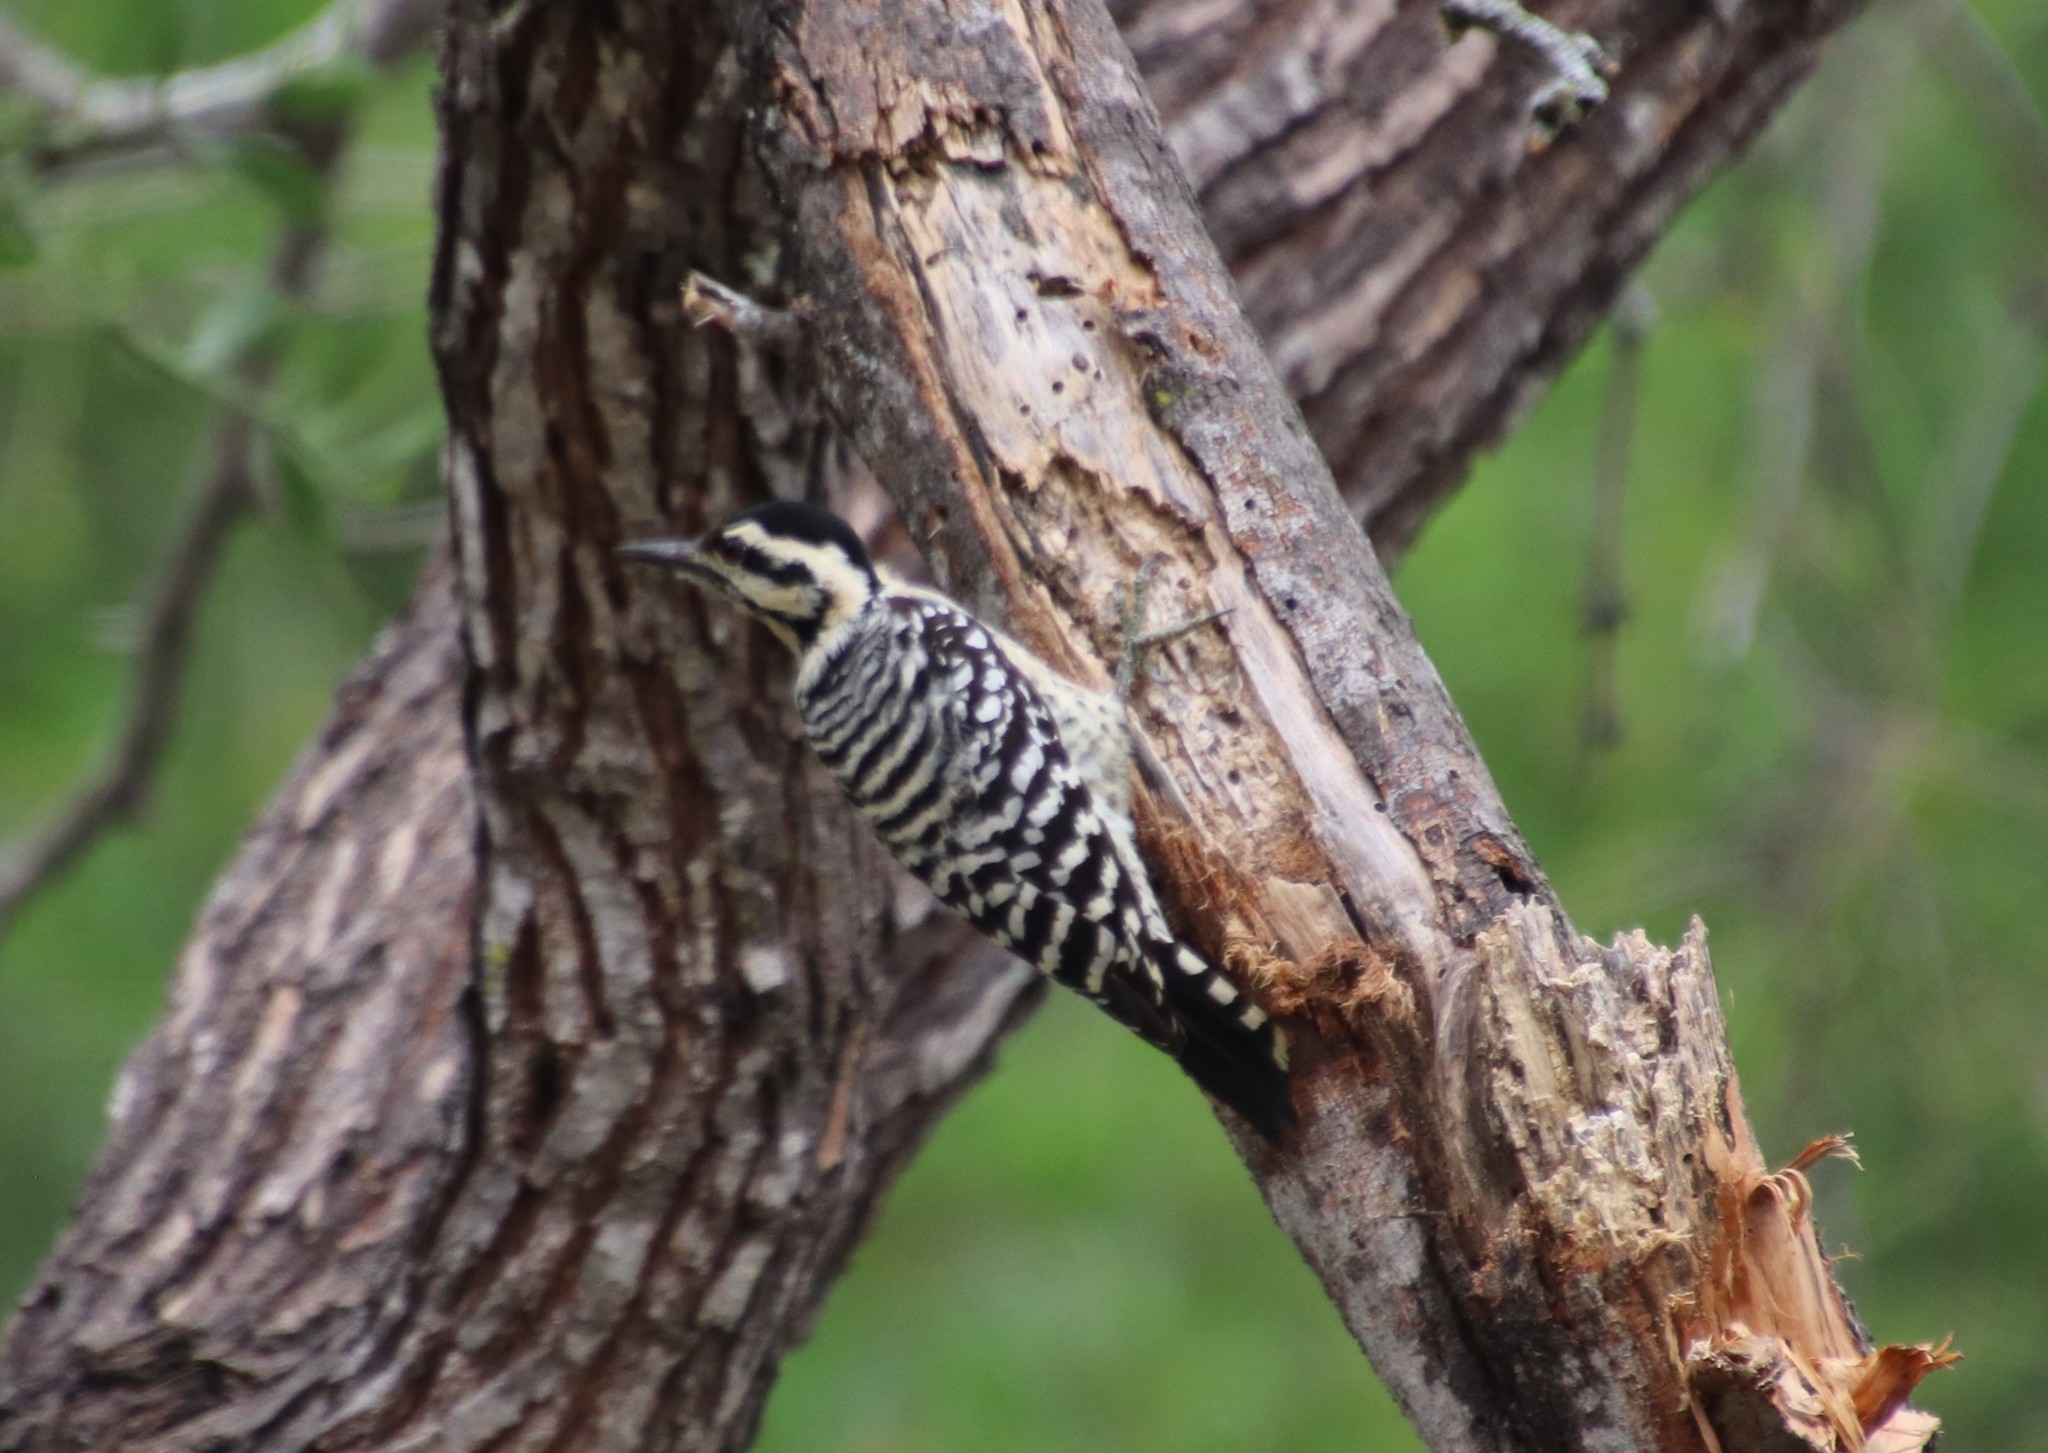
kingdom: Animalia
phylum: Chordata
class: Aves
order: Piciformes
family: Picidae
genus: Dryobates
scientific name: Dryobates scalaris
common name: Ladder-backed woodpecker
